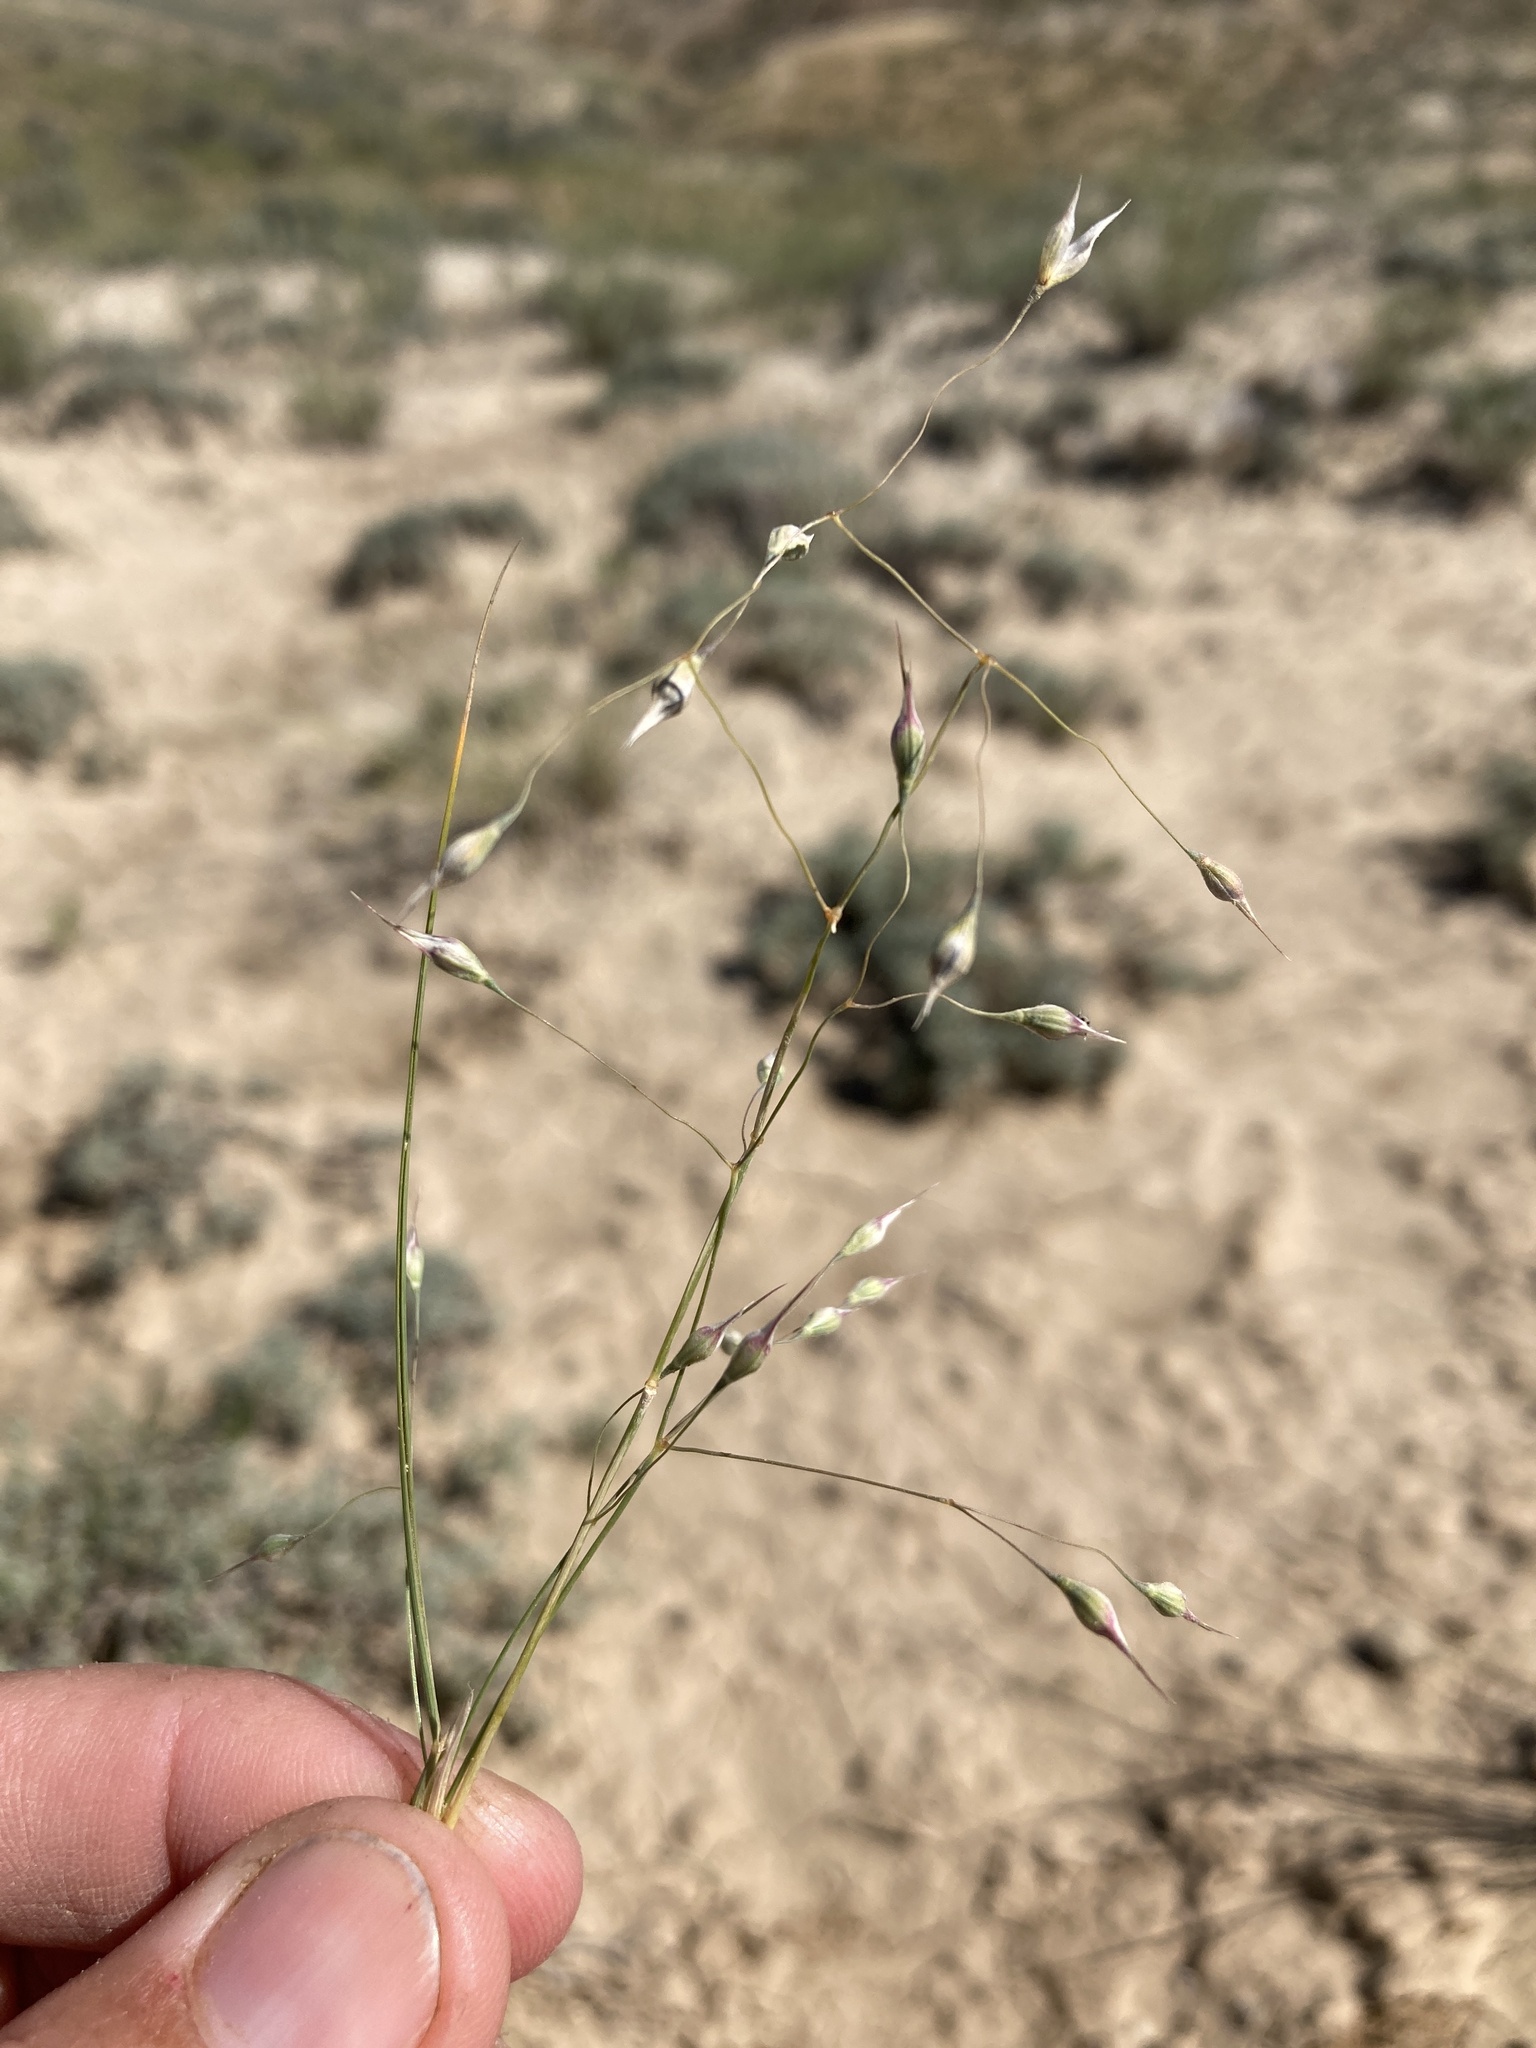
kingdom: Plantae
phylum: Tracheophyta
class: Liliopsida
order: Poales
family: Poaceae
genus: Eriocoma
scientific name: Eriocoma hymenoides
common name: Indian mountain ricegrass
